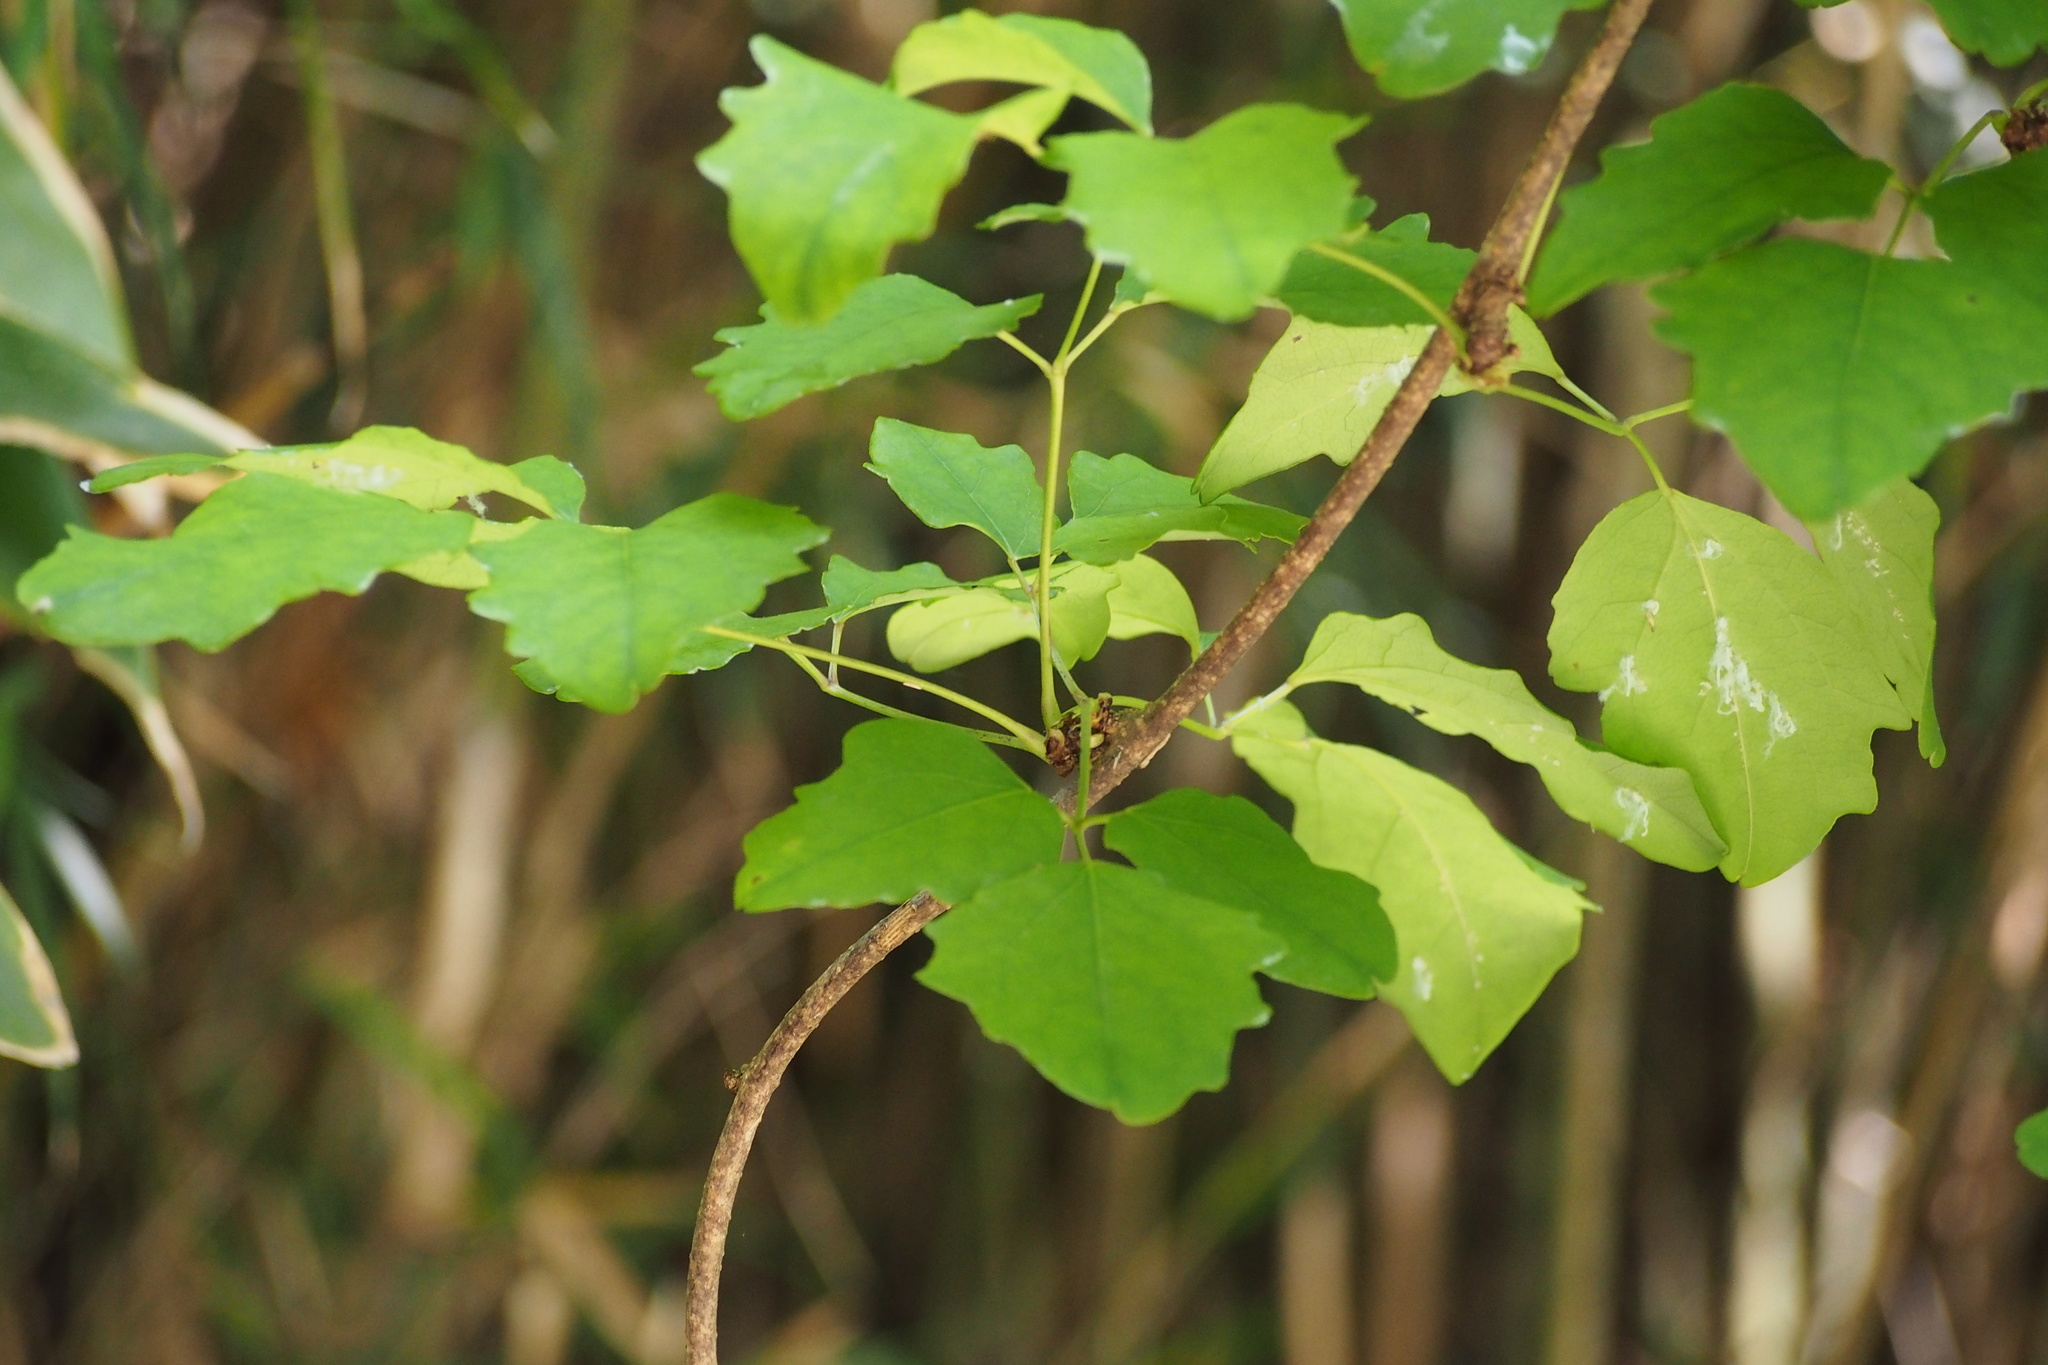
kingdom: Plantae
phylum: Tracheophyta
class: Magnoliopsida
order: Ranunculales
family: Lardizabalaceae
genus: Akebia
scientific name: Akebia trifoliata
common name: Chocolate-vine
